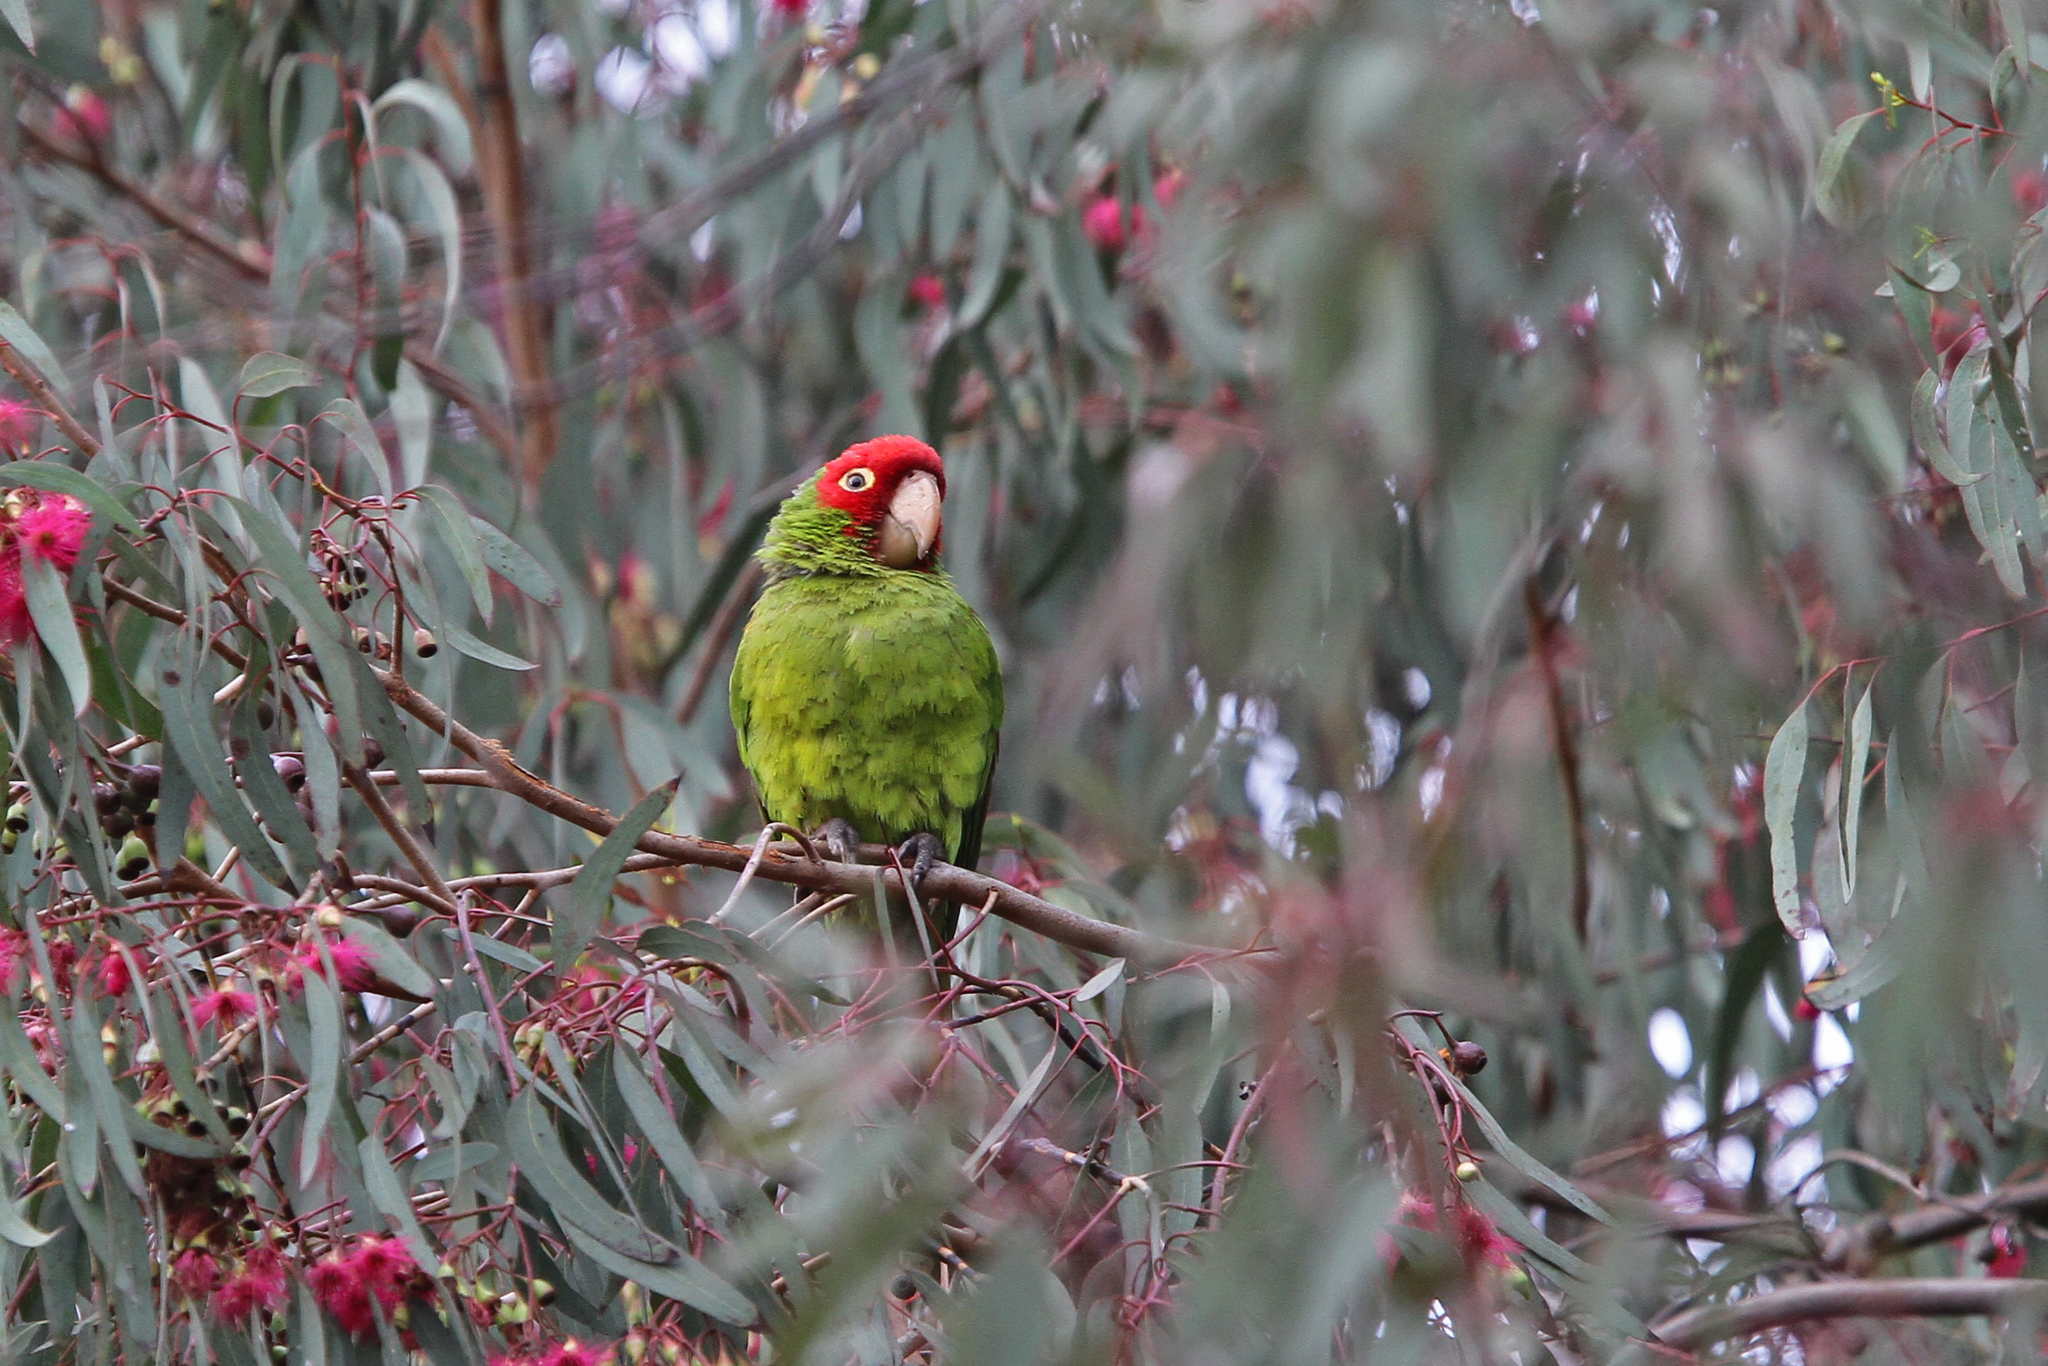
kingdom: Animalia
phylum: Chordata
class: Aves
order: Psittaciformes
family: Psittacidae
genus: Aratinga
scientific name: Aratinga erythrogenys
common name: Red-masked parakeet
